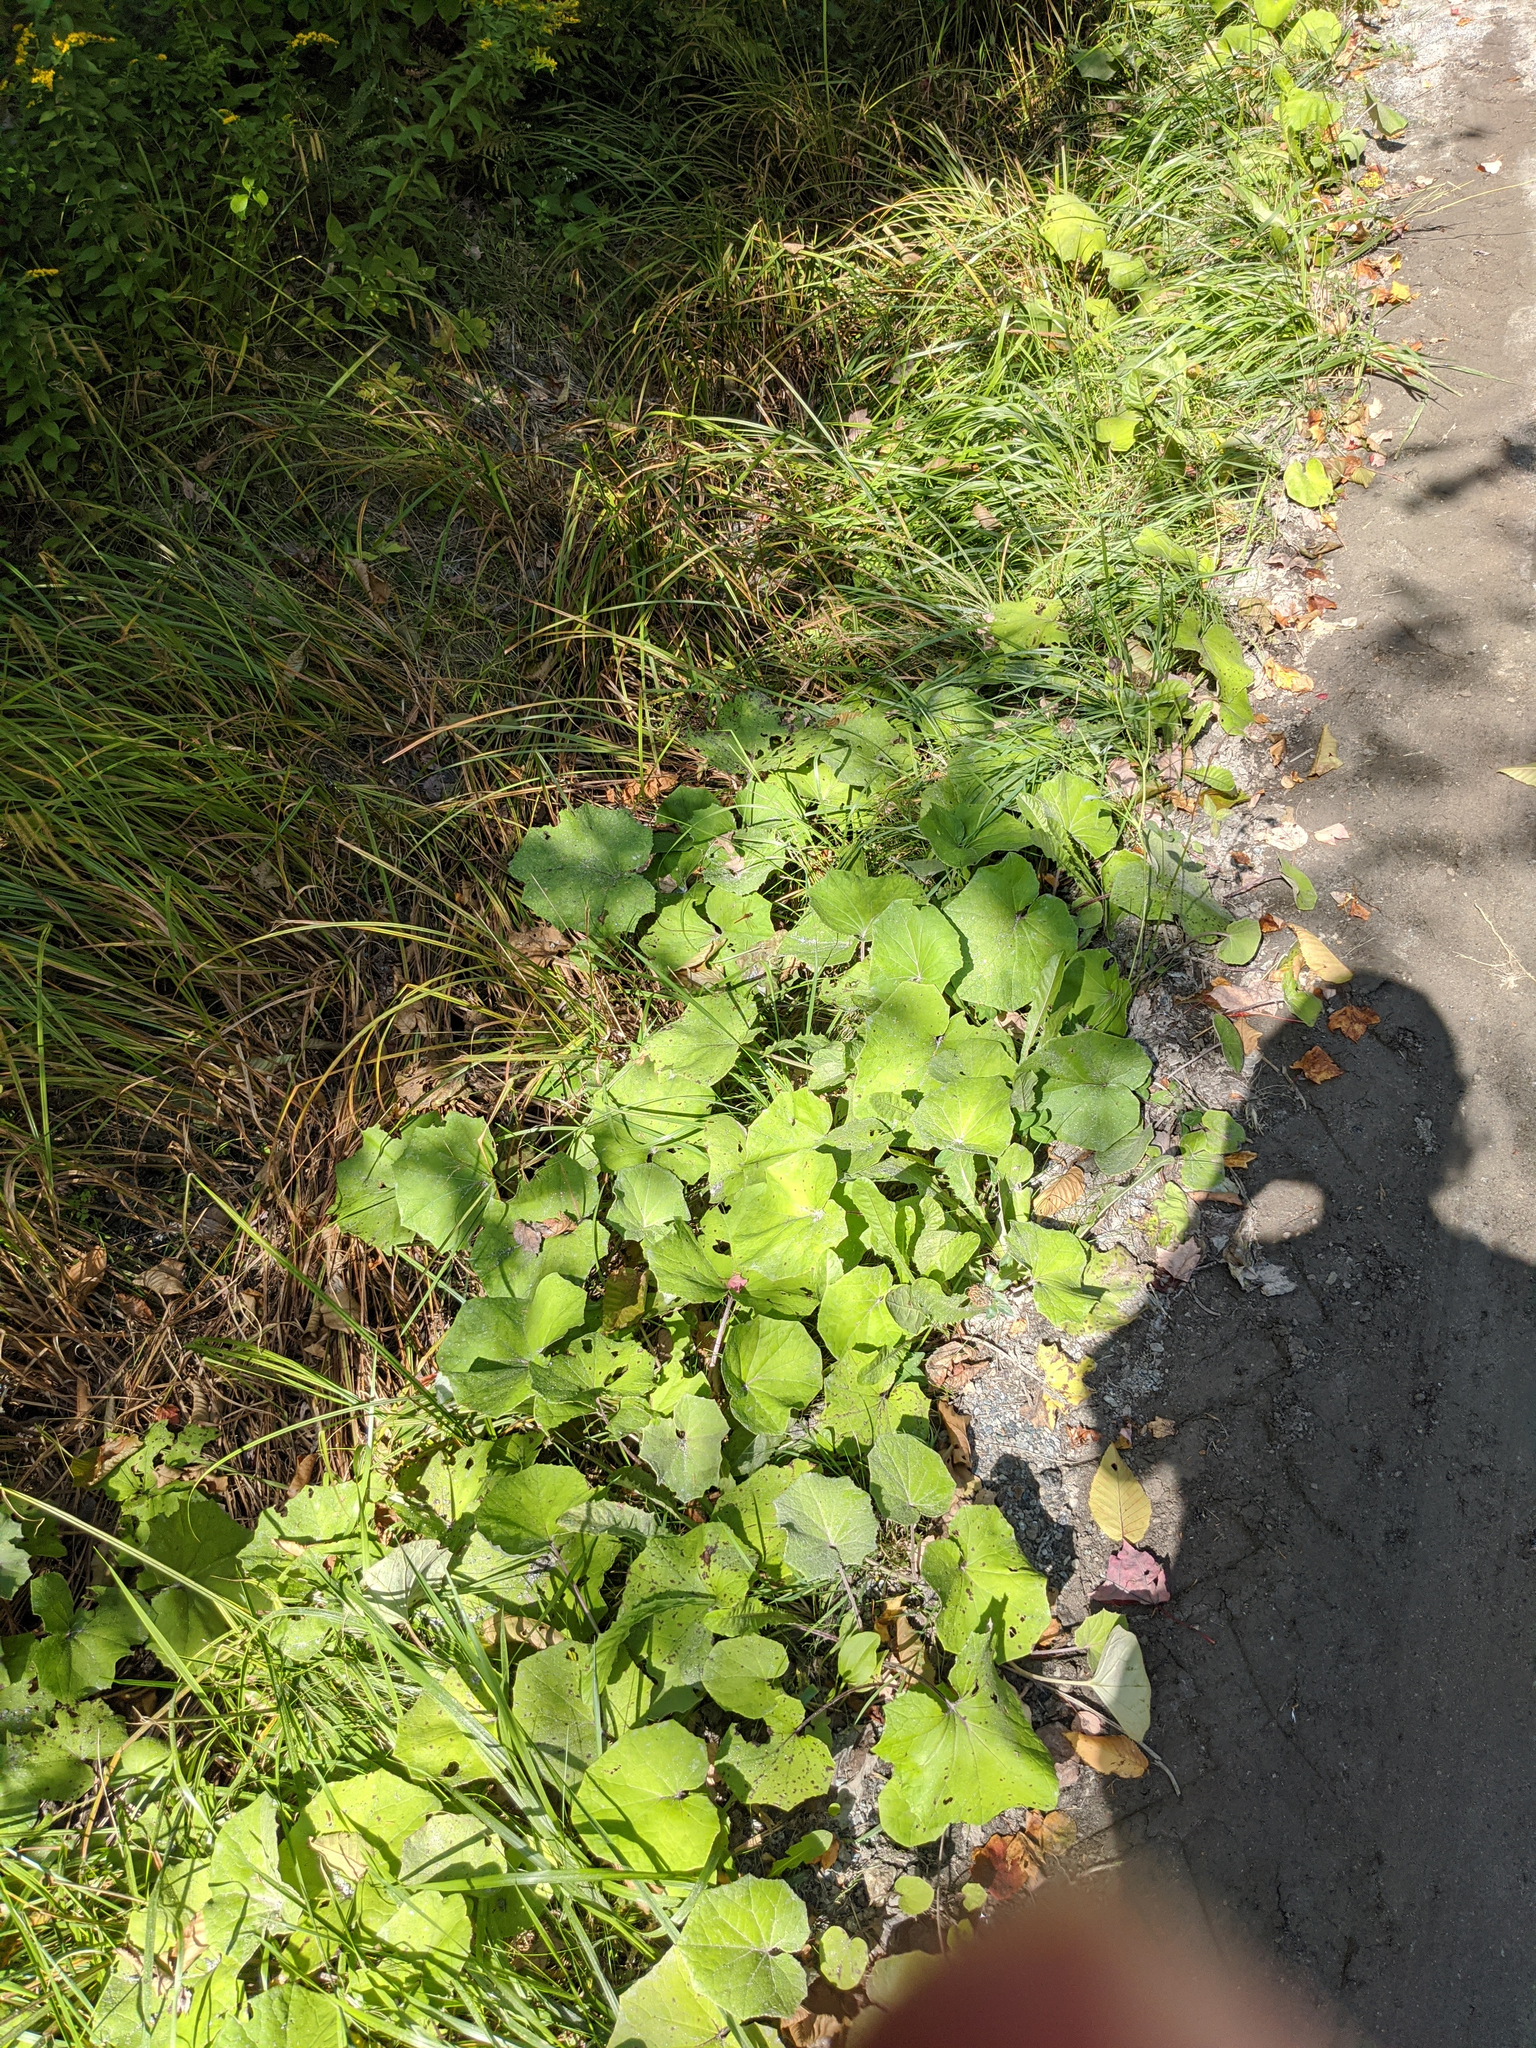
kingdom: Plantae
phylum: Tracheophyta
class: Magnoliopsida
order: Asterales
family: Asteraceae
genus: Tussilago
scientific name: Tussilago farfara
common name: Coltsfoot
